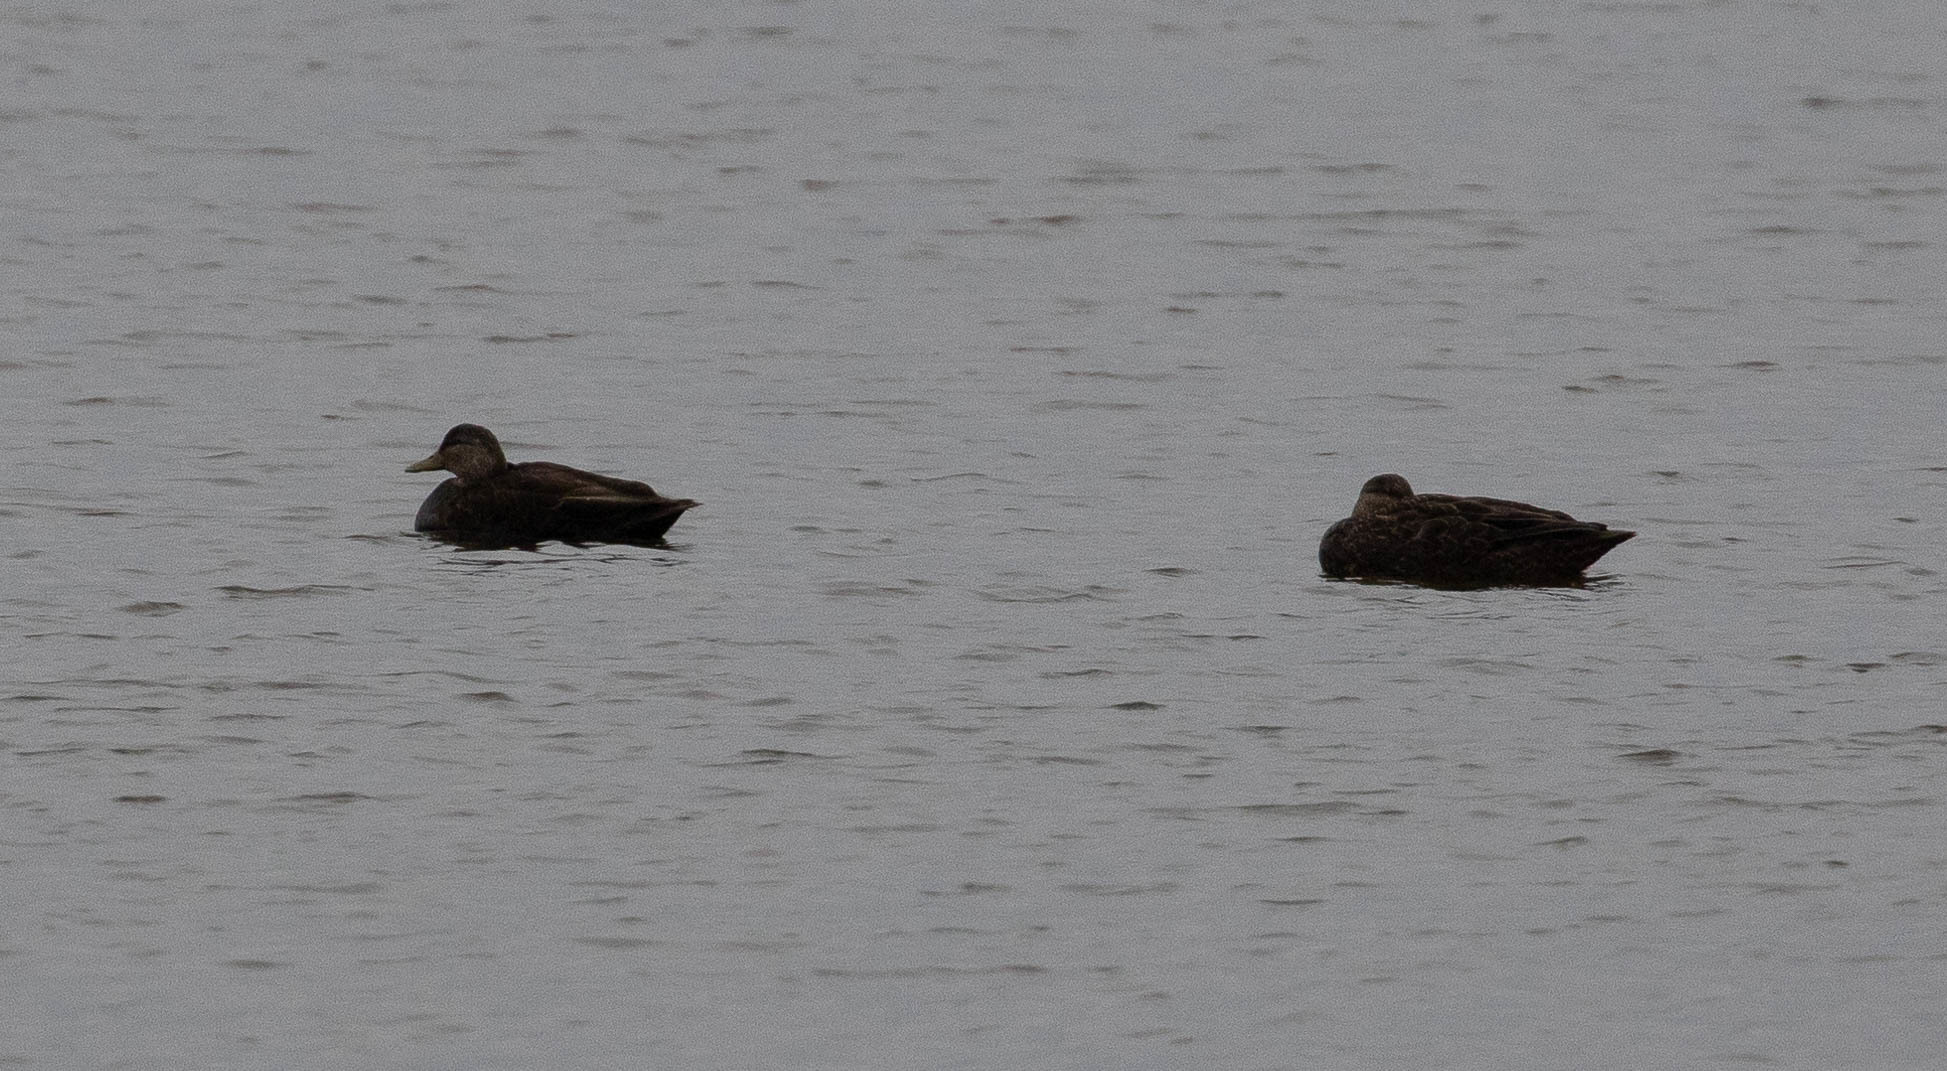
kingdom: Animalia
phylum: Chordata
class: Aves
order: Anseriformes
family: Anatidae
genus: Anas
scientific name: Anas rubripes
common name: American black duck
